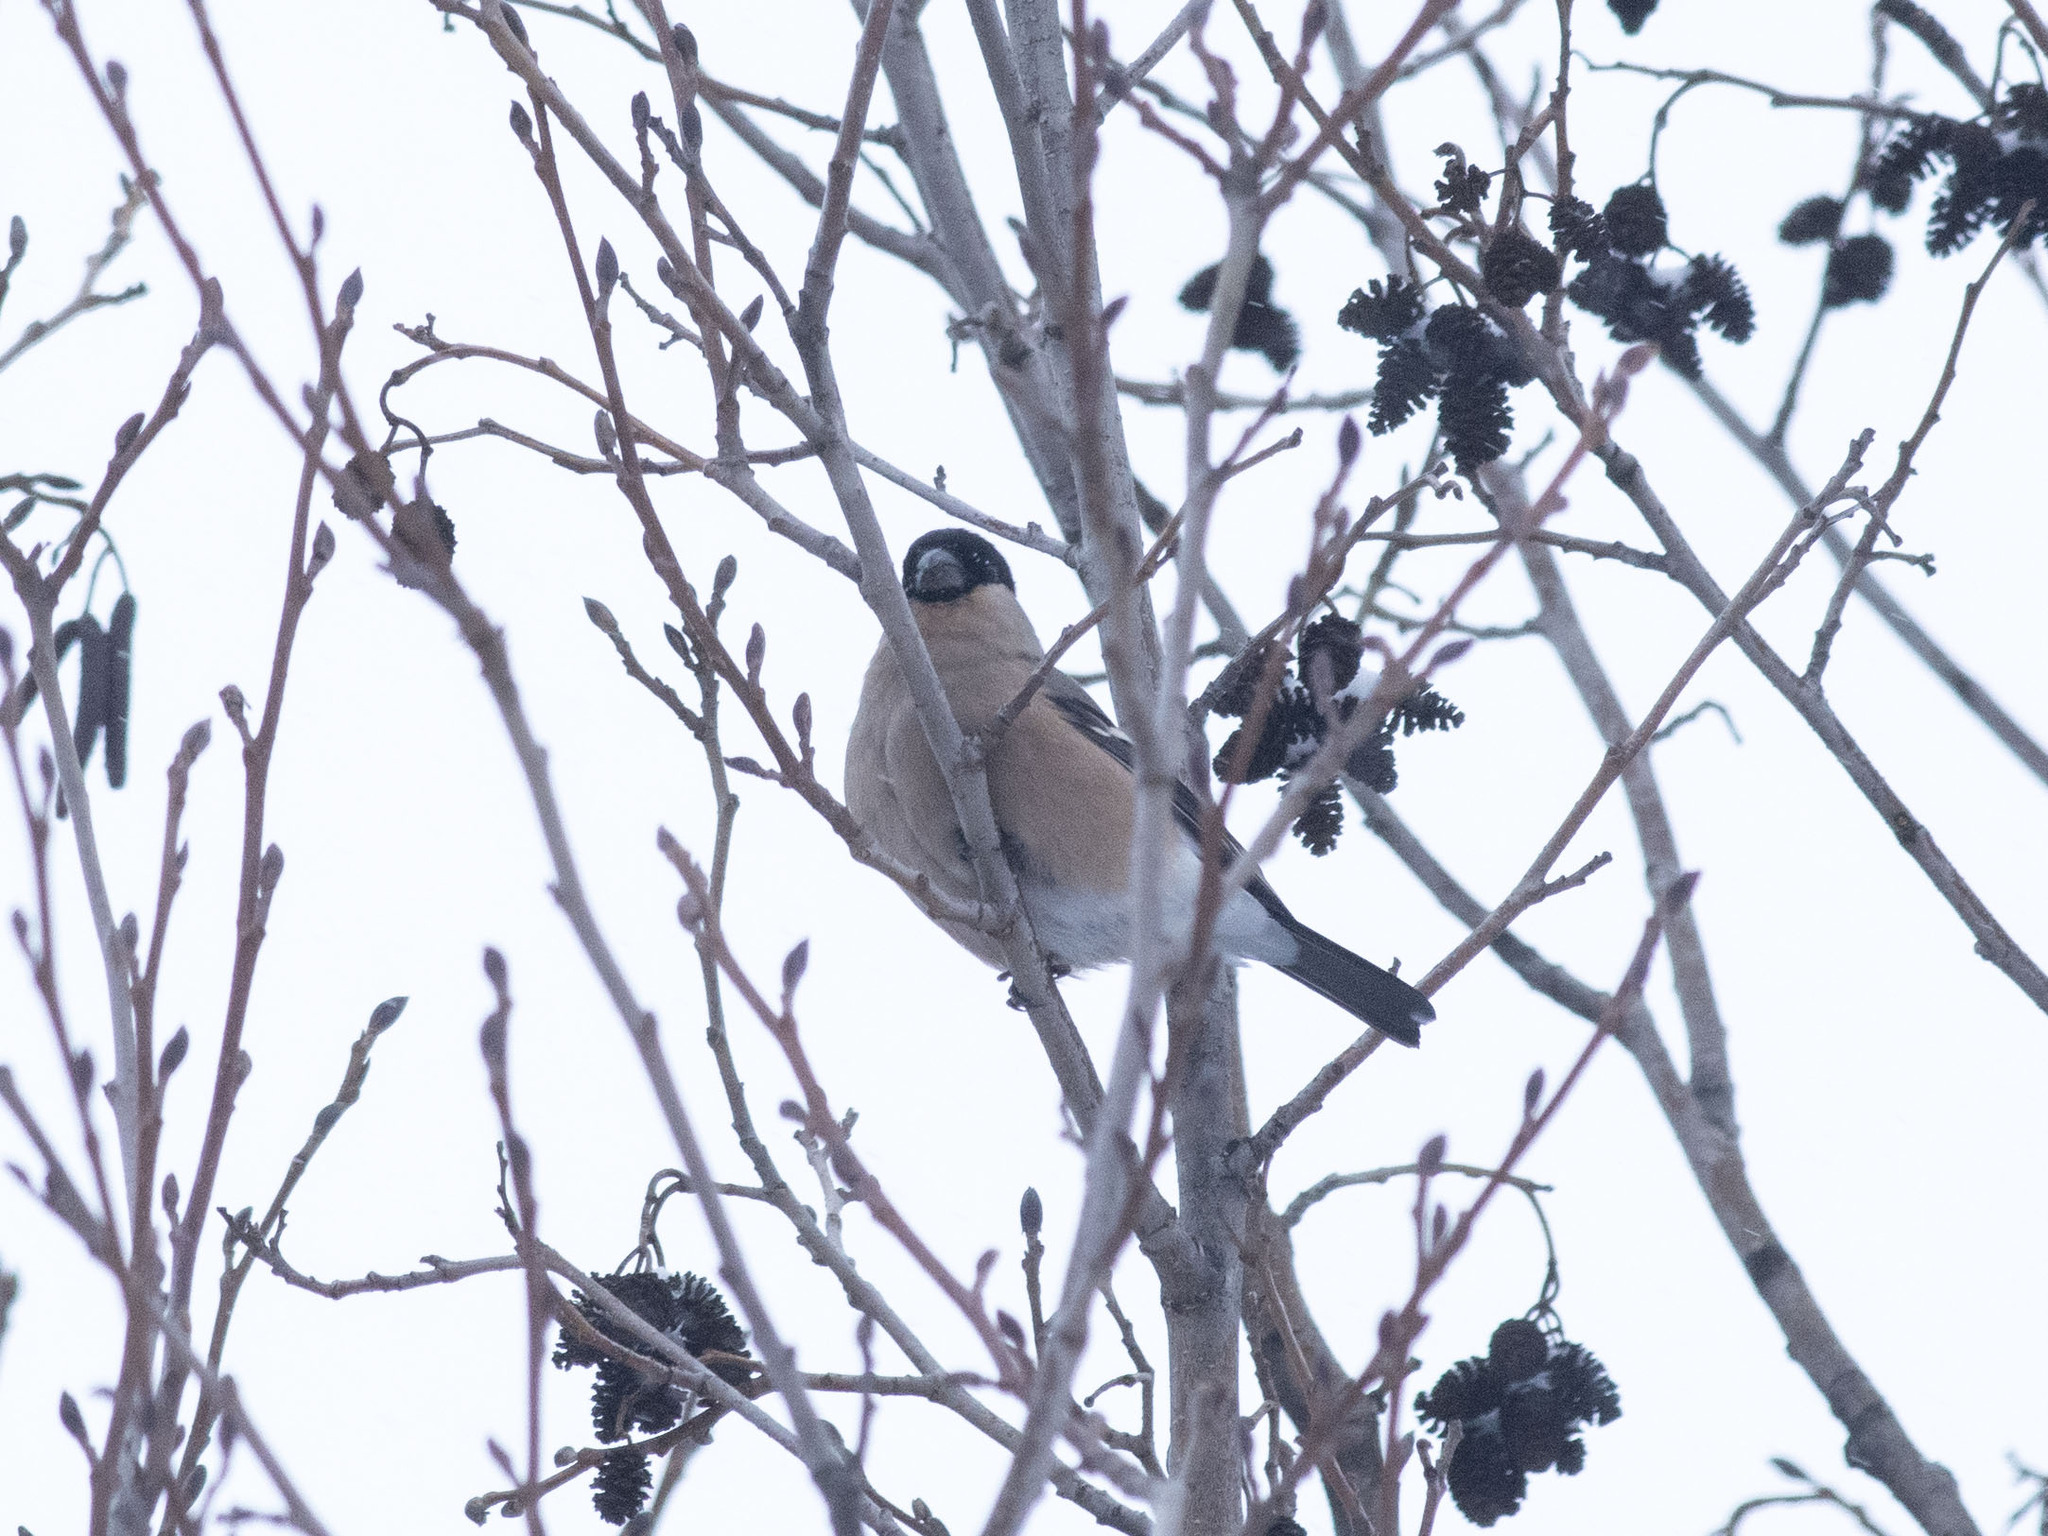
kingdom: Animalia
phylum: Chordata
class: Aves
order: Passeriformes
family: Fringillidae
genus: Pyrrhula
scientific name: Pyrrhula pyrrhula
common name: Eurasian bullfinch
